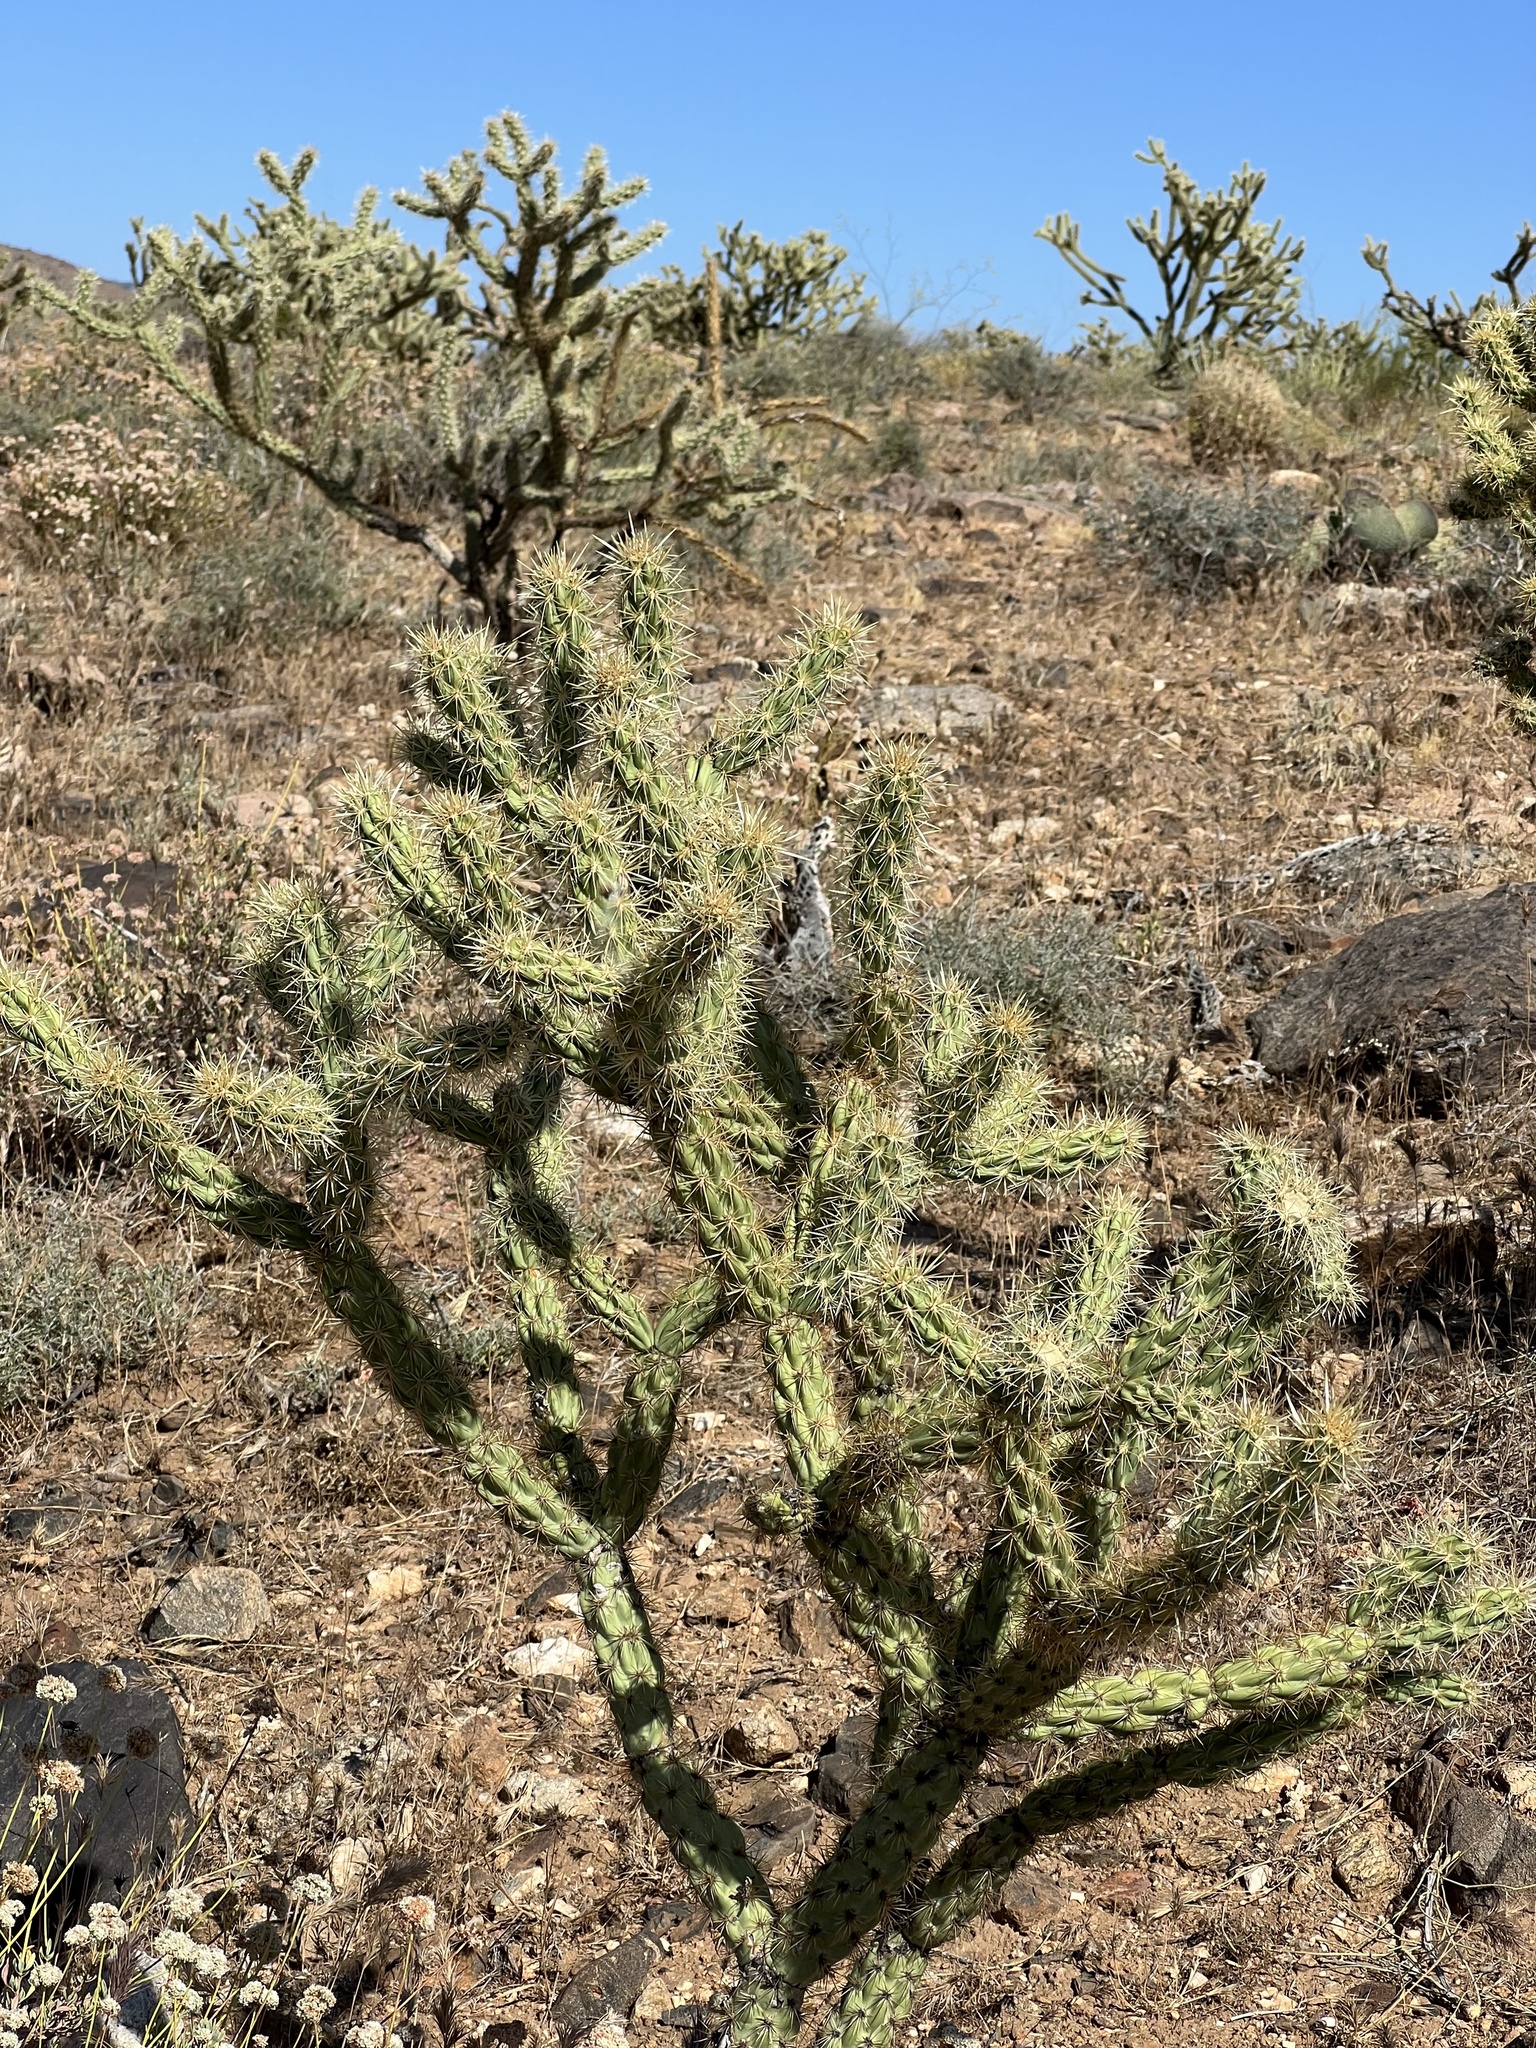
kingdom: Plantae
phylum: Tracheophyta
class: Magnoliopsida
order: Caryophyllales
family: Cactaceae
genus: Cylindropuntia
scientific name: Cylindropuntia acanthocarpa
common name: Buckhorn cholla
